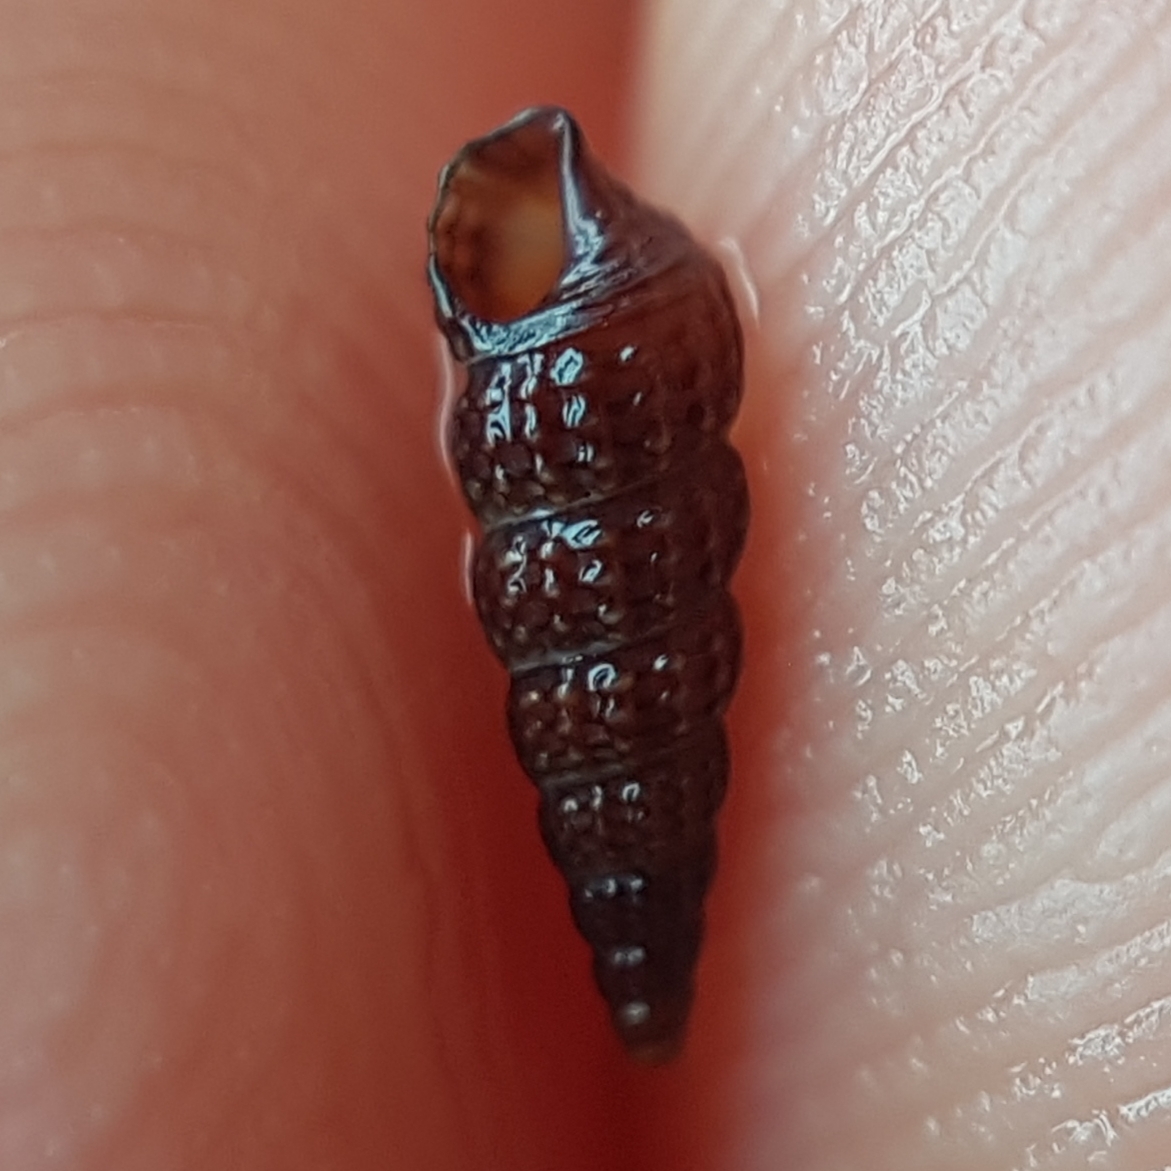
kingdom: Animalia
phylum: Mollusca
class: Gastropoda
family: Cerithiidae
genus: Bittium
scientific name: Bittium reticulatum
